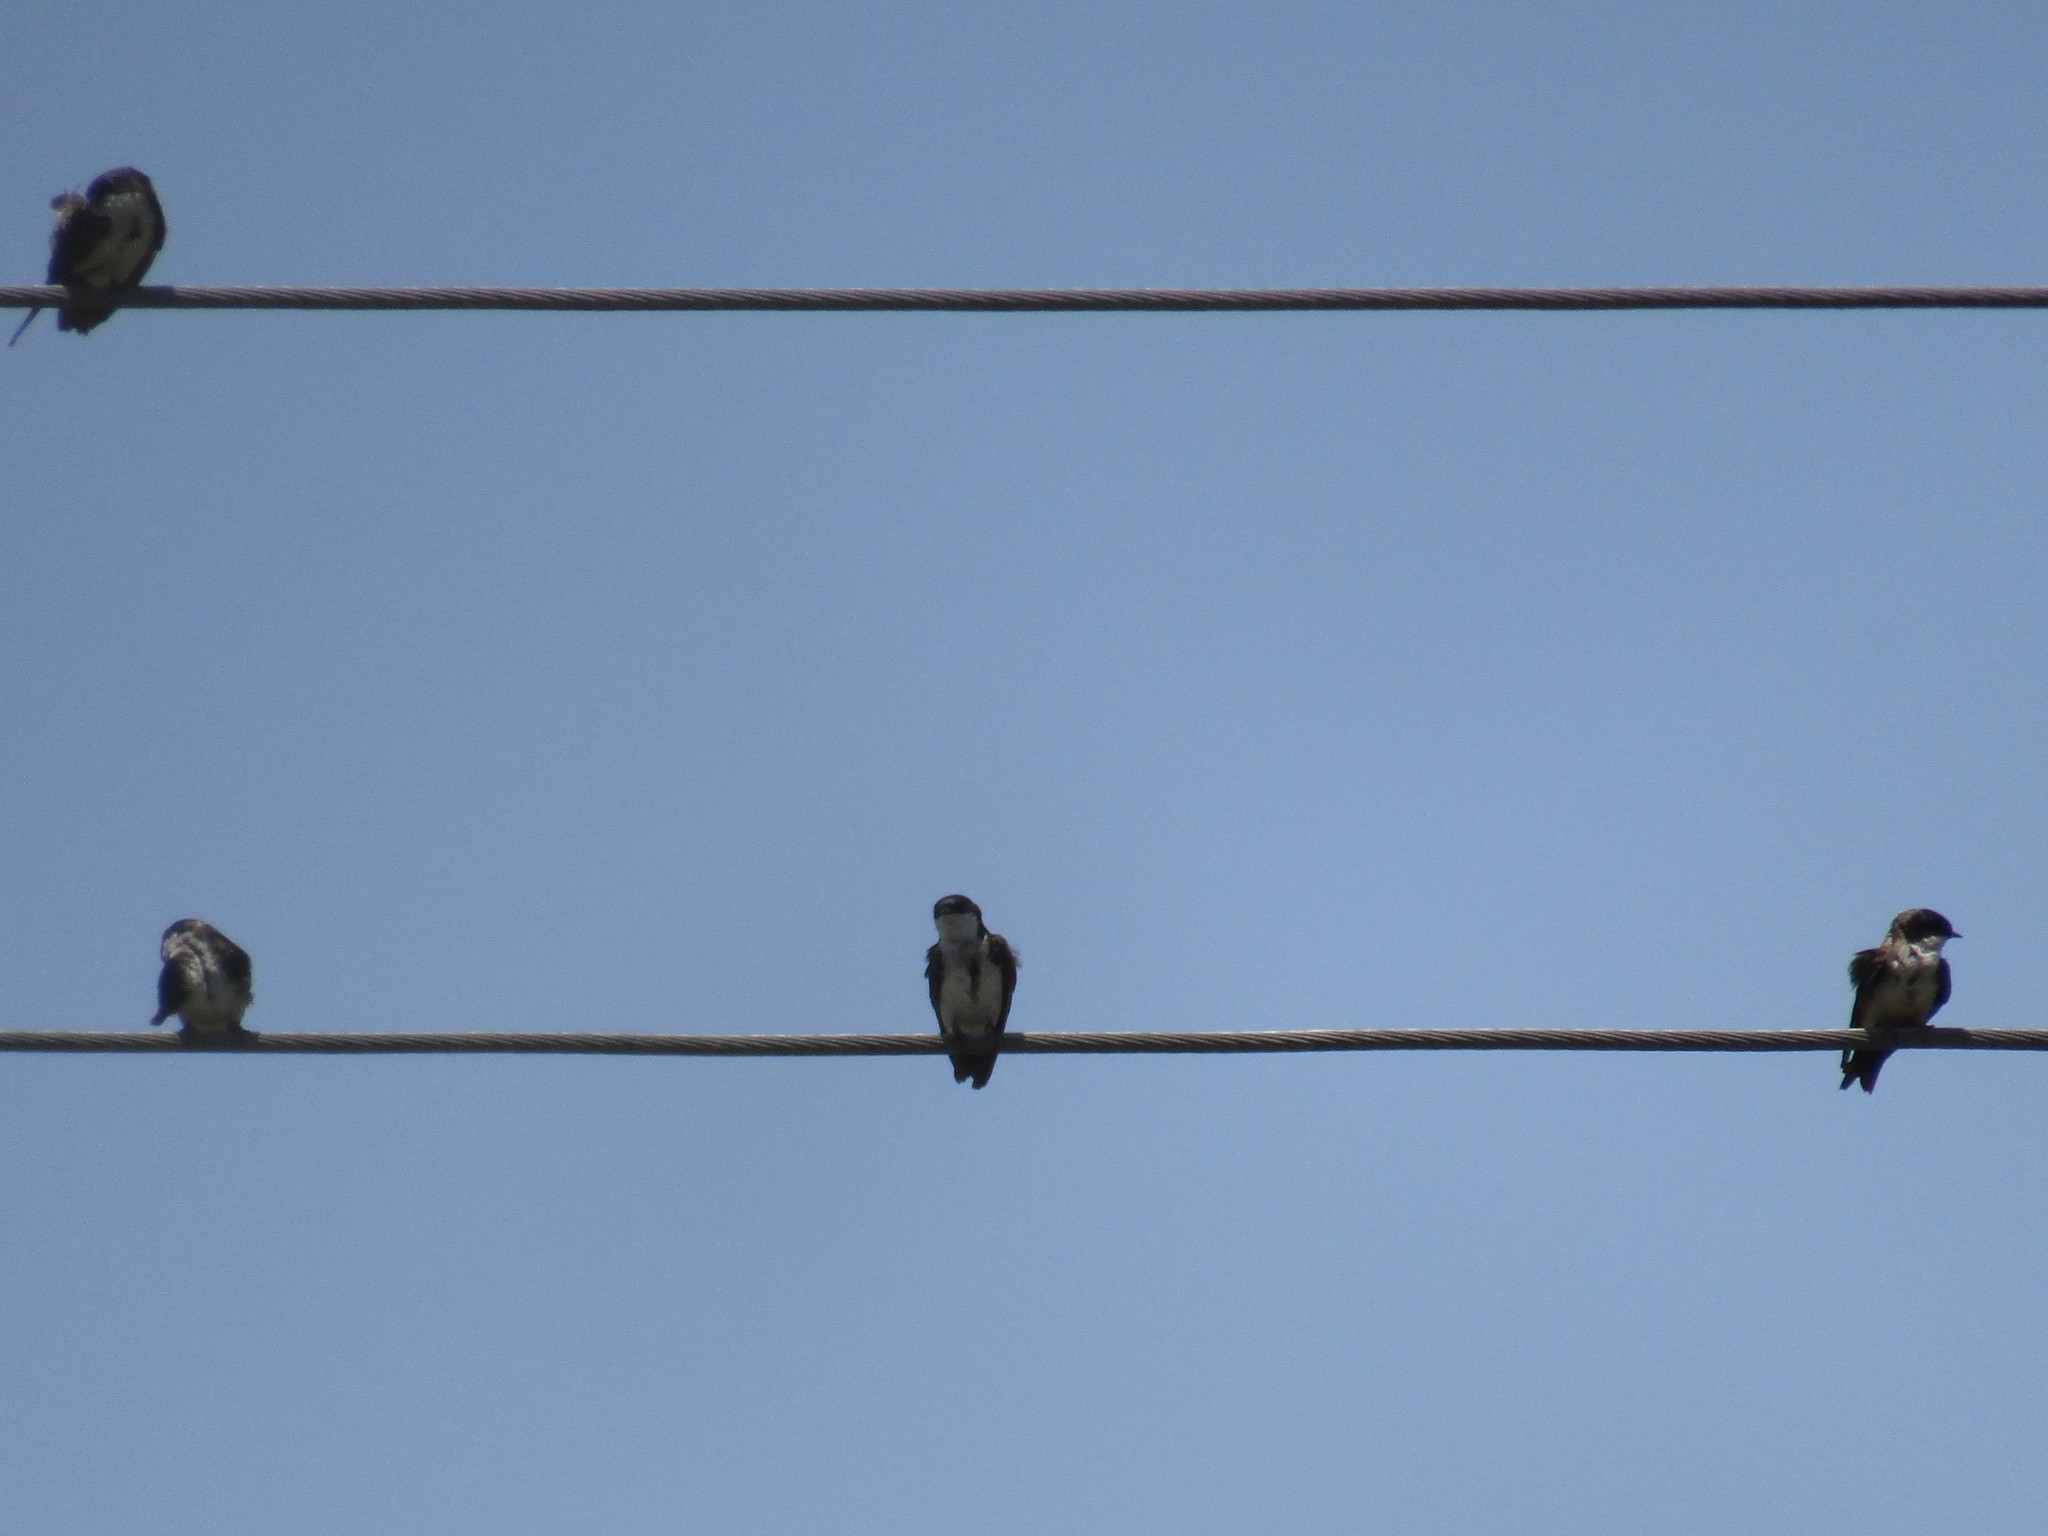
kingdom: Animalia
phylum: Chordata
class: Aves
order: Passeriformes
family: Hirundinidae
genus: Notiochelidon
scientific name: Notiochelidon cyanoleuca
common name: Blue-and-white swallow
